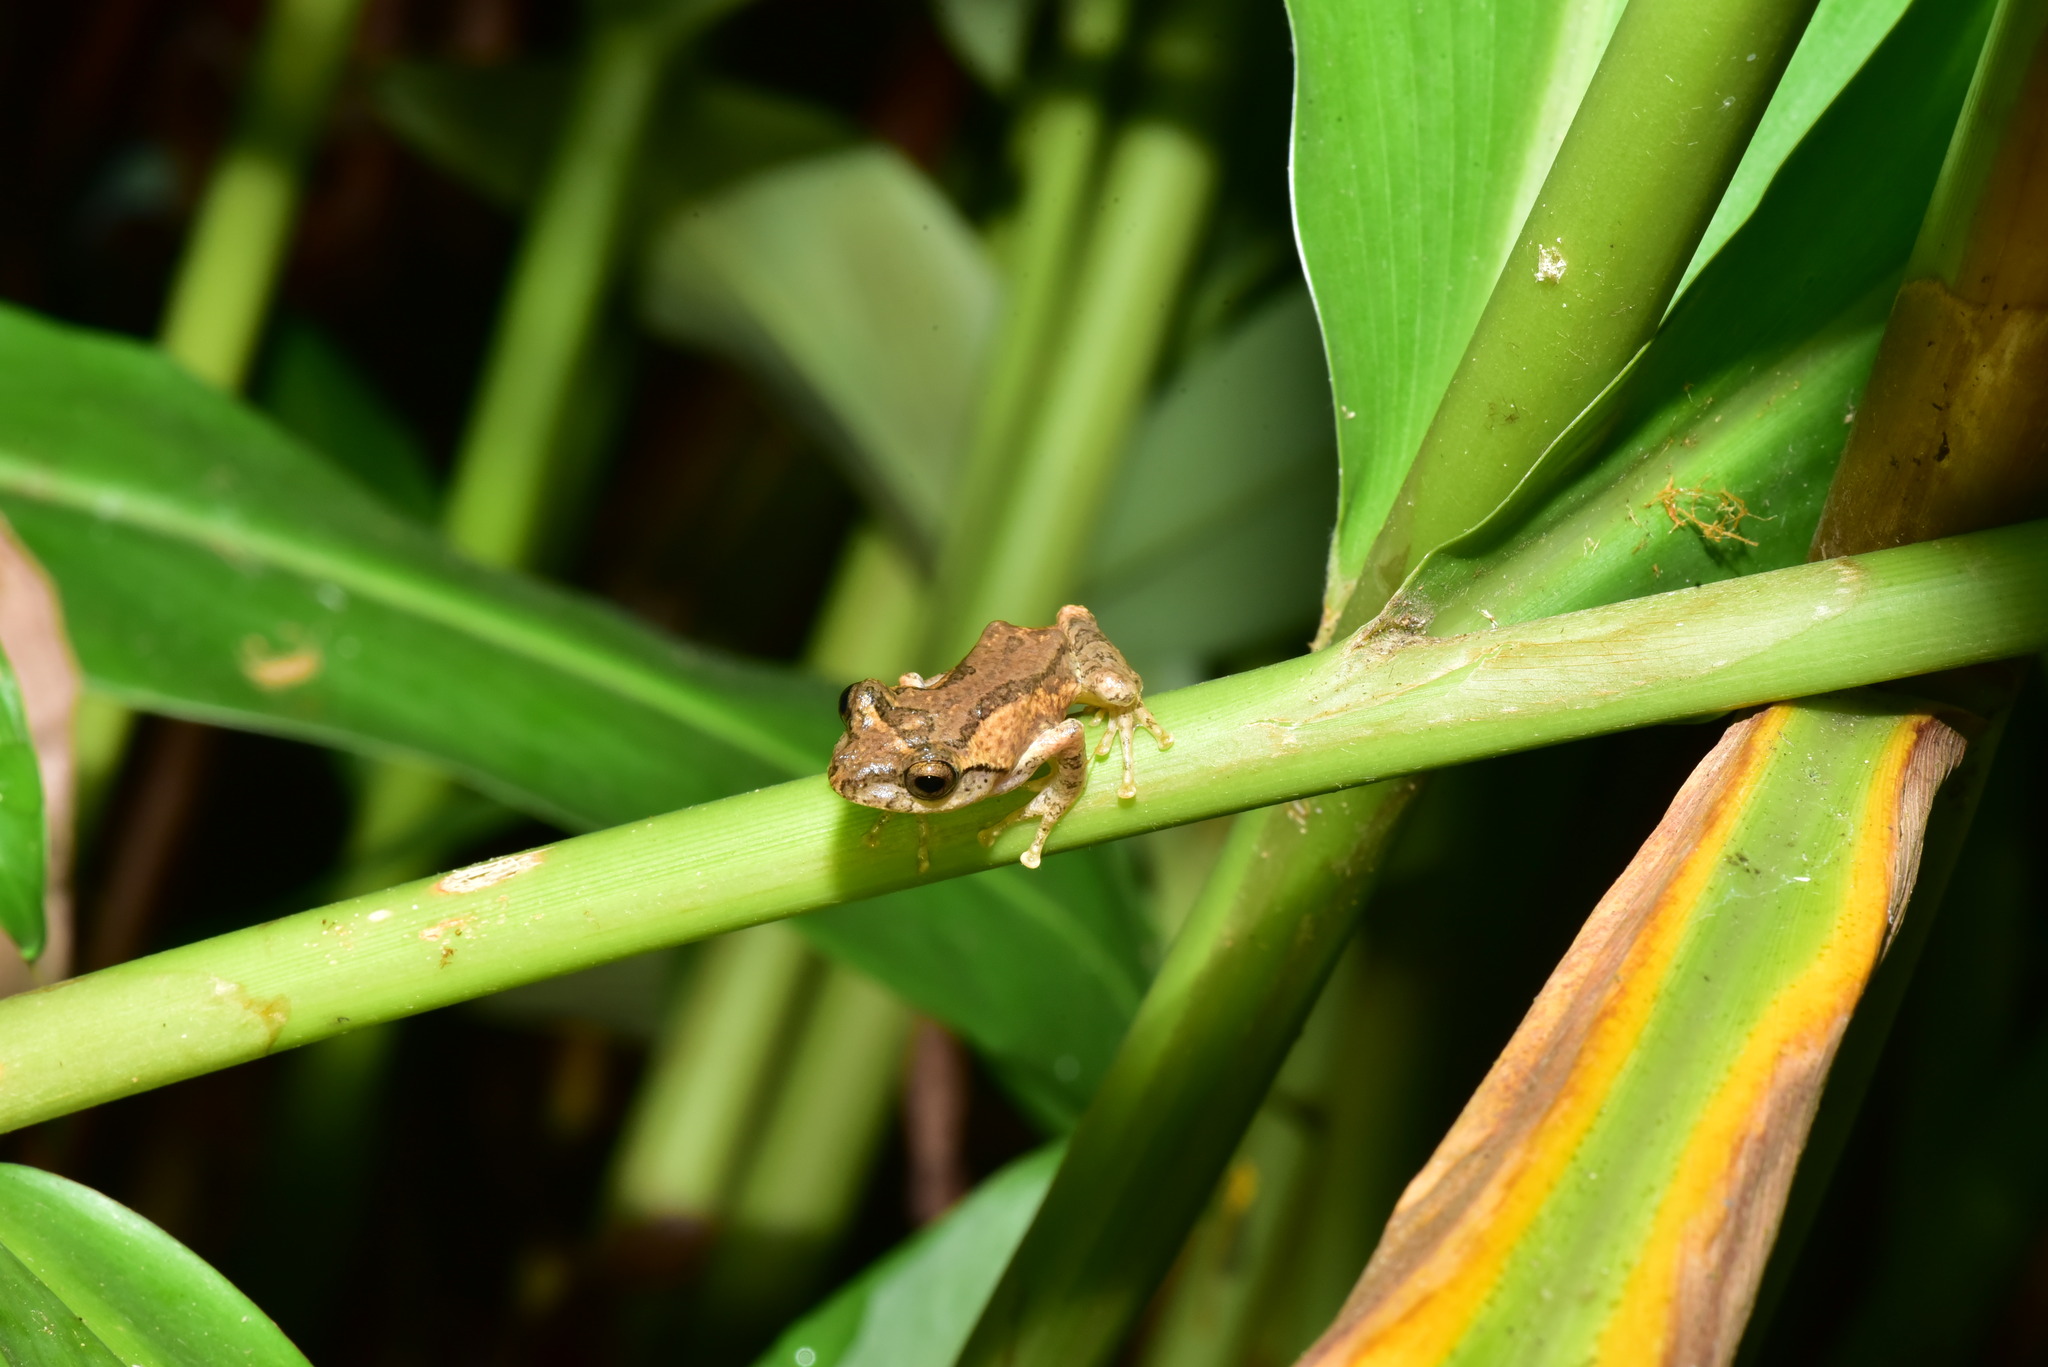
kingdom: Animalia
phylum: Chordata
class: Amphibia
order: Anura
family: Rhacophoridae
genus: Kurixalus
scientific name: Kurixalus idiootocus
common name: Temple treefrog
